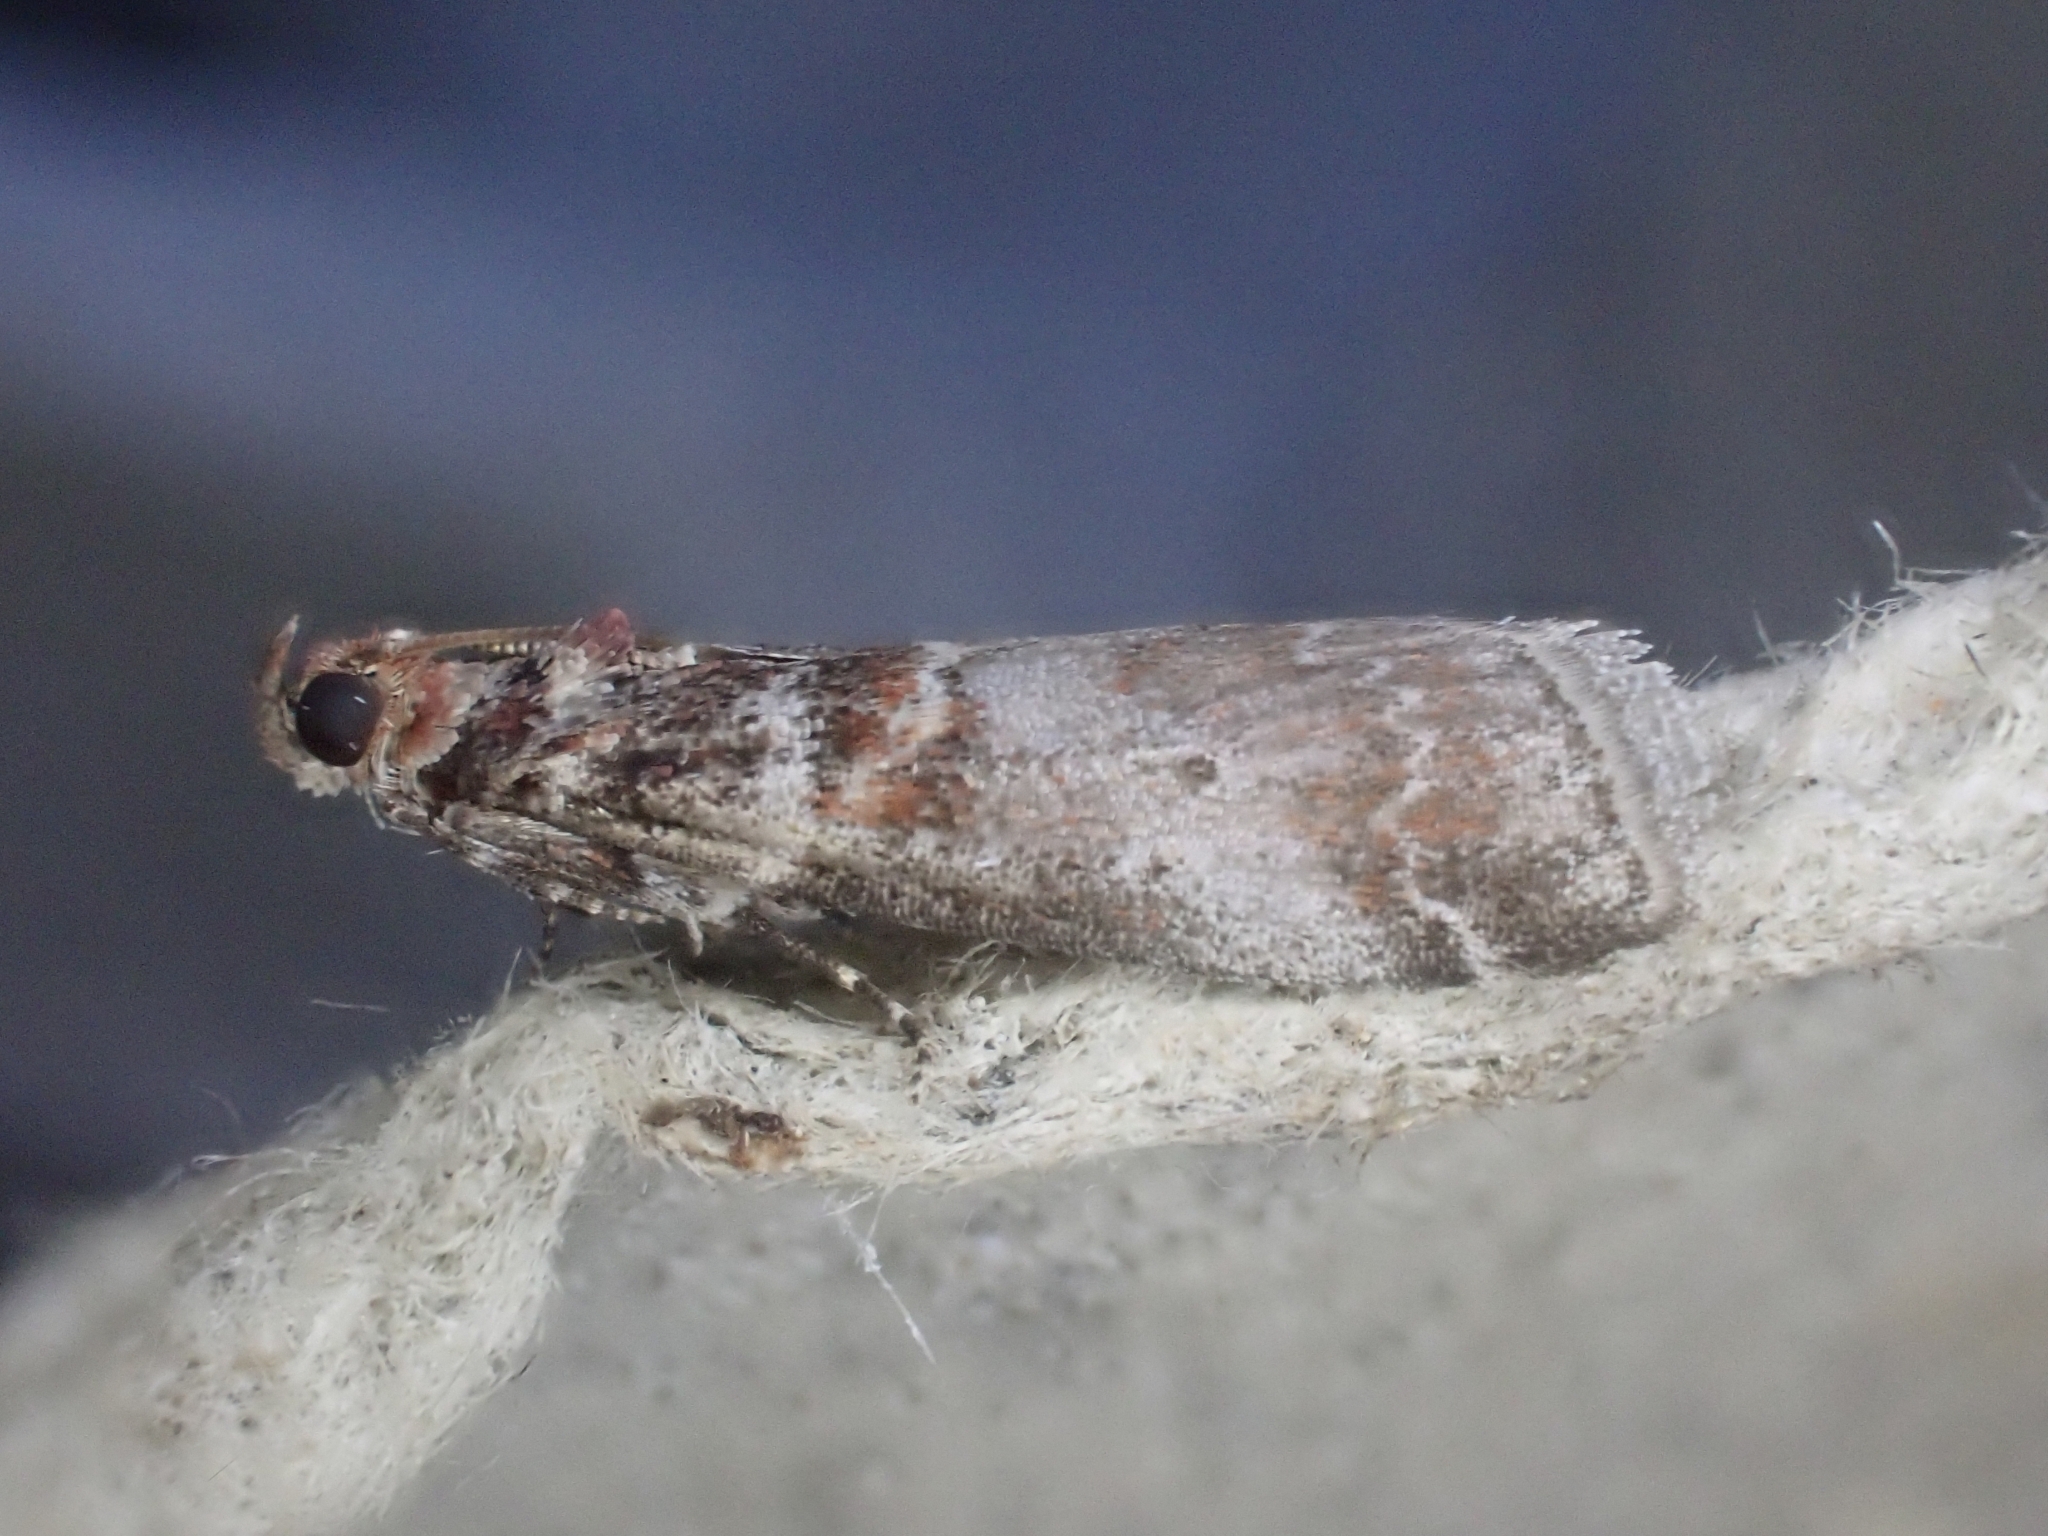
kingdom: Animalia
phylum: Arthropoda
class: Insecta
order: Lepidoptera
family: Pyralidae
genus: Acrobasis
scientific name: Acrobasis advenella
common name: Grey knot-horn
